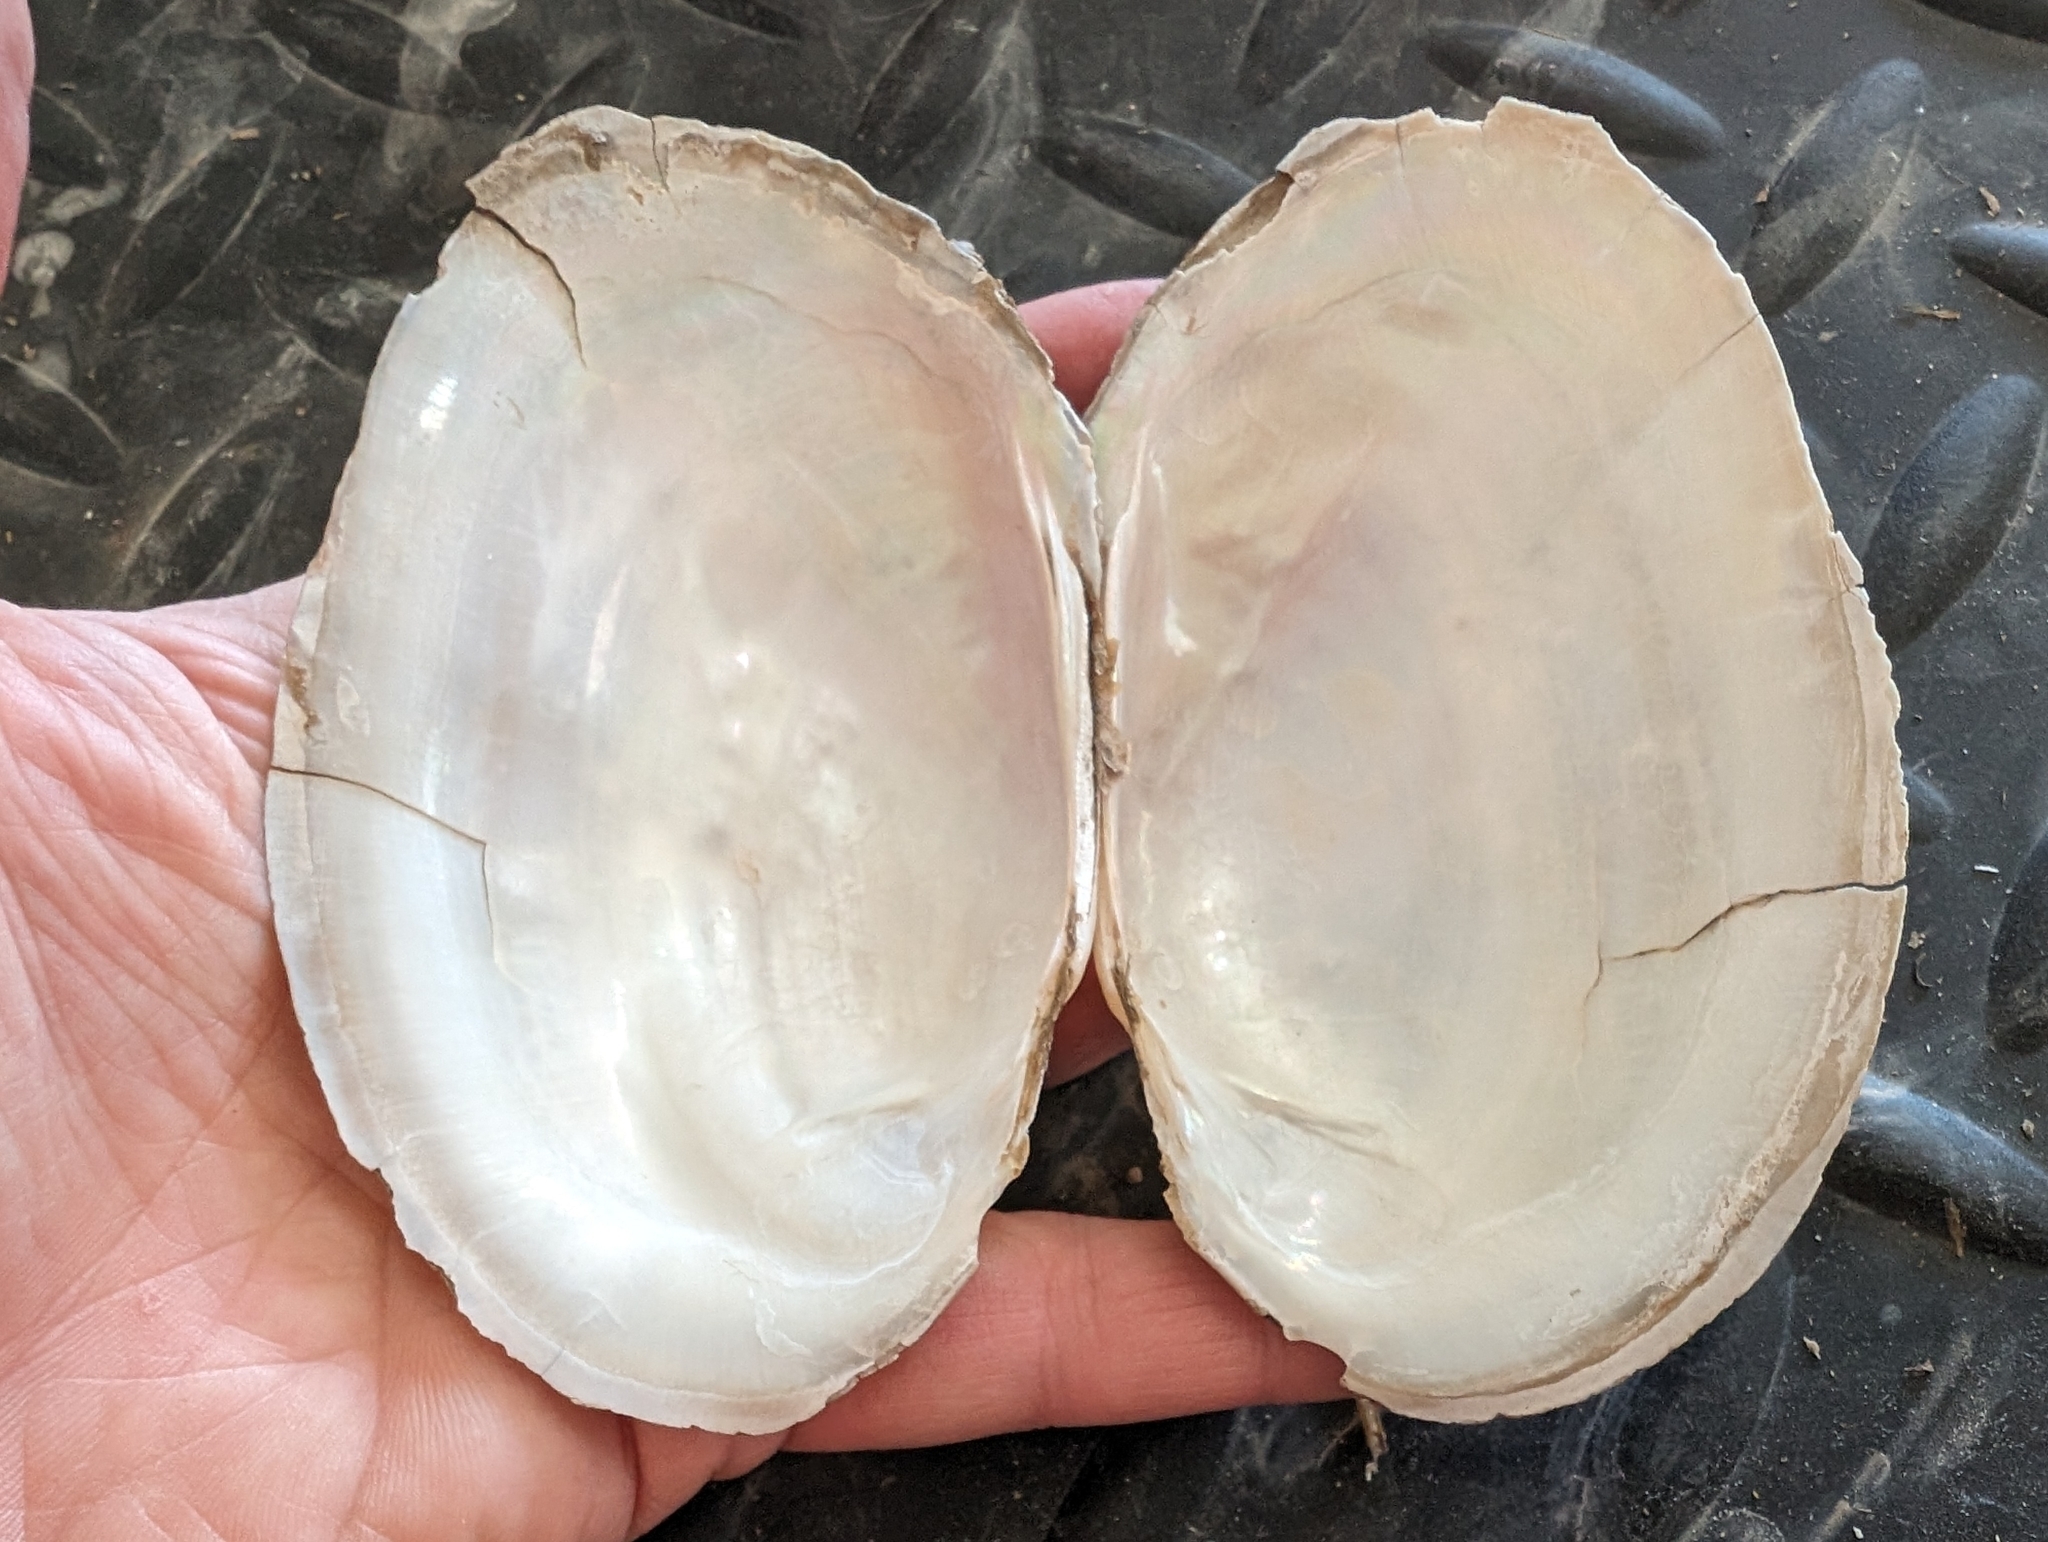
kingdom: Animalia
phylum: Mollusca
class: Bivalvia
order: Unionida
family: Unionidae
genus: Potamilus
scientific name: Potamilus fragilis
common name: Fragile papershell
